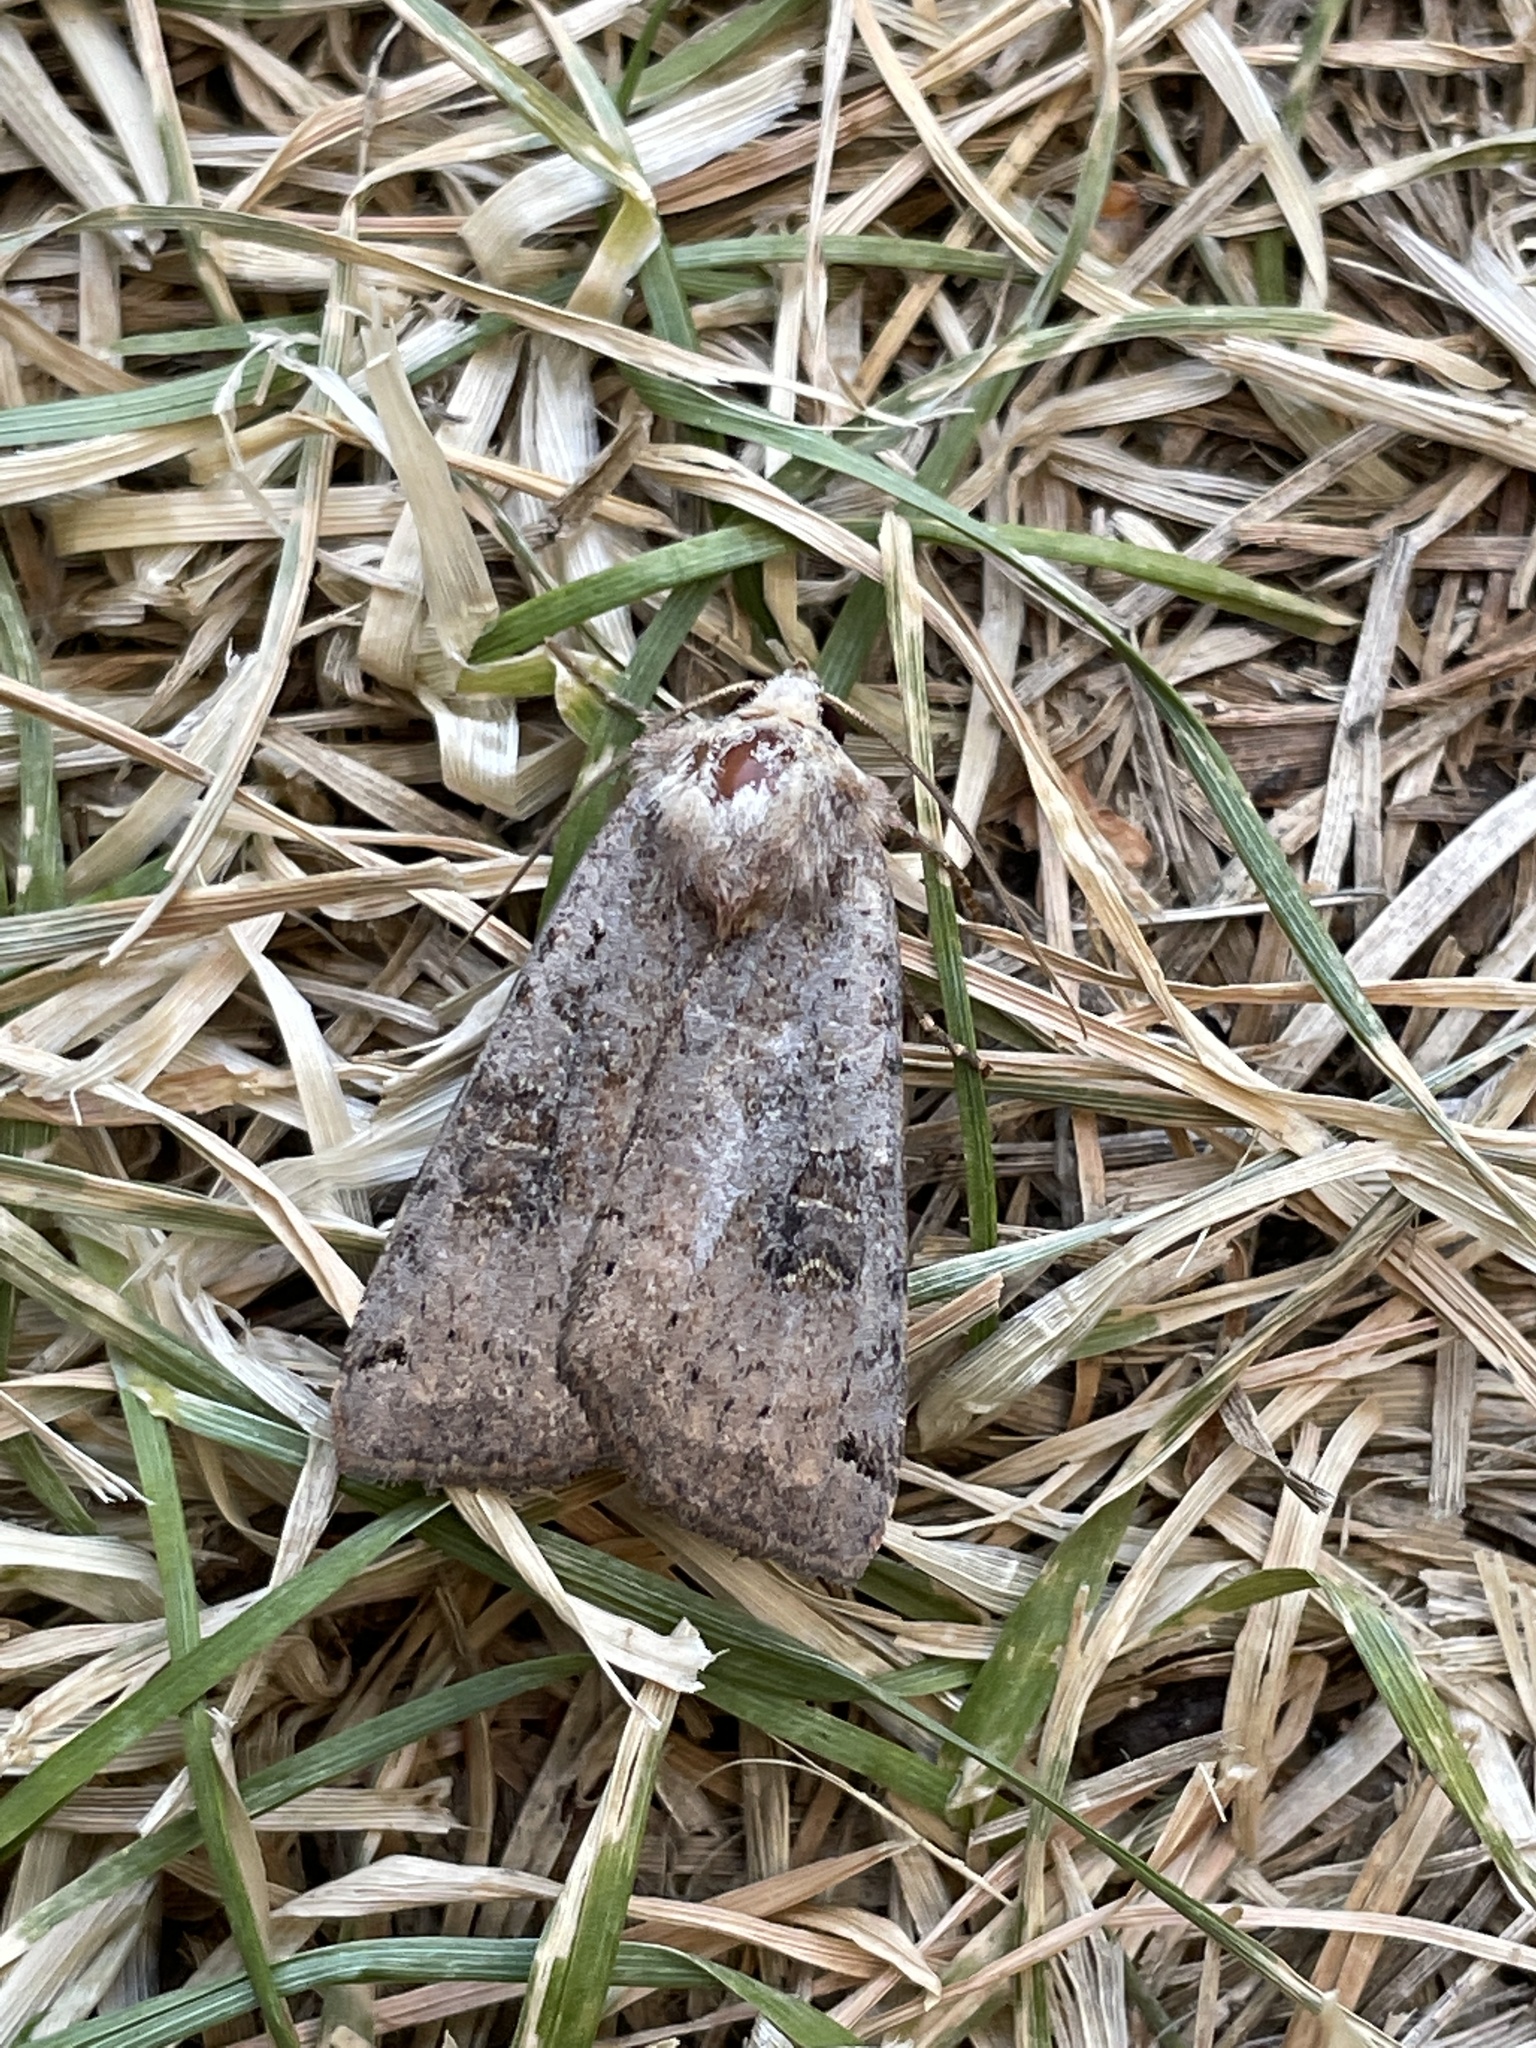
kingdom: Animalia
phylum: Arthropoda
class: Insecta
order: Lepidoptera
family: Noctuidae
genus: Xestia
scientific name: Xestia baja
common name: Dotted clay
